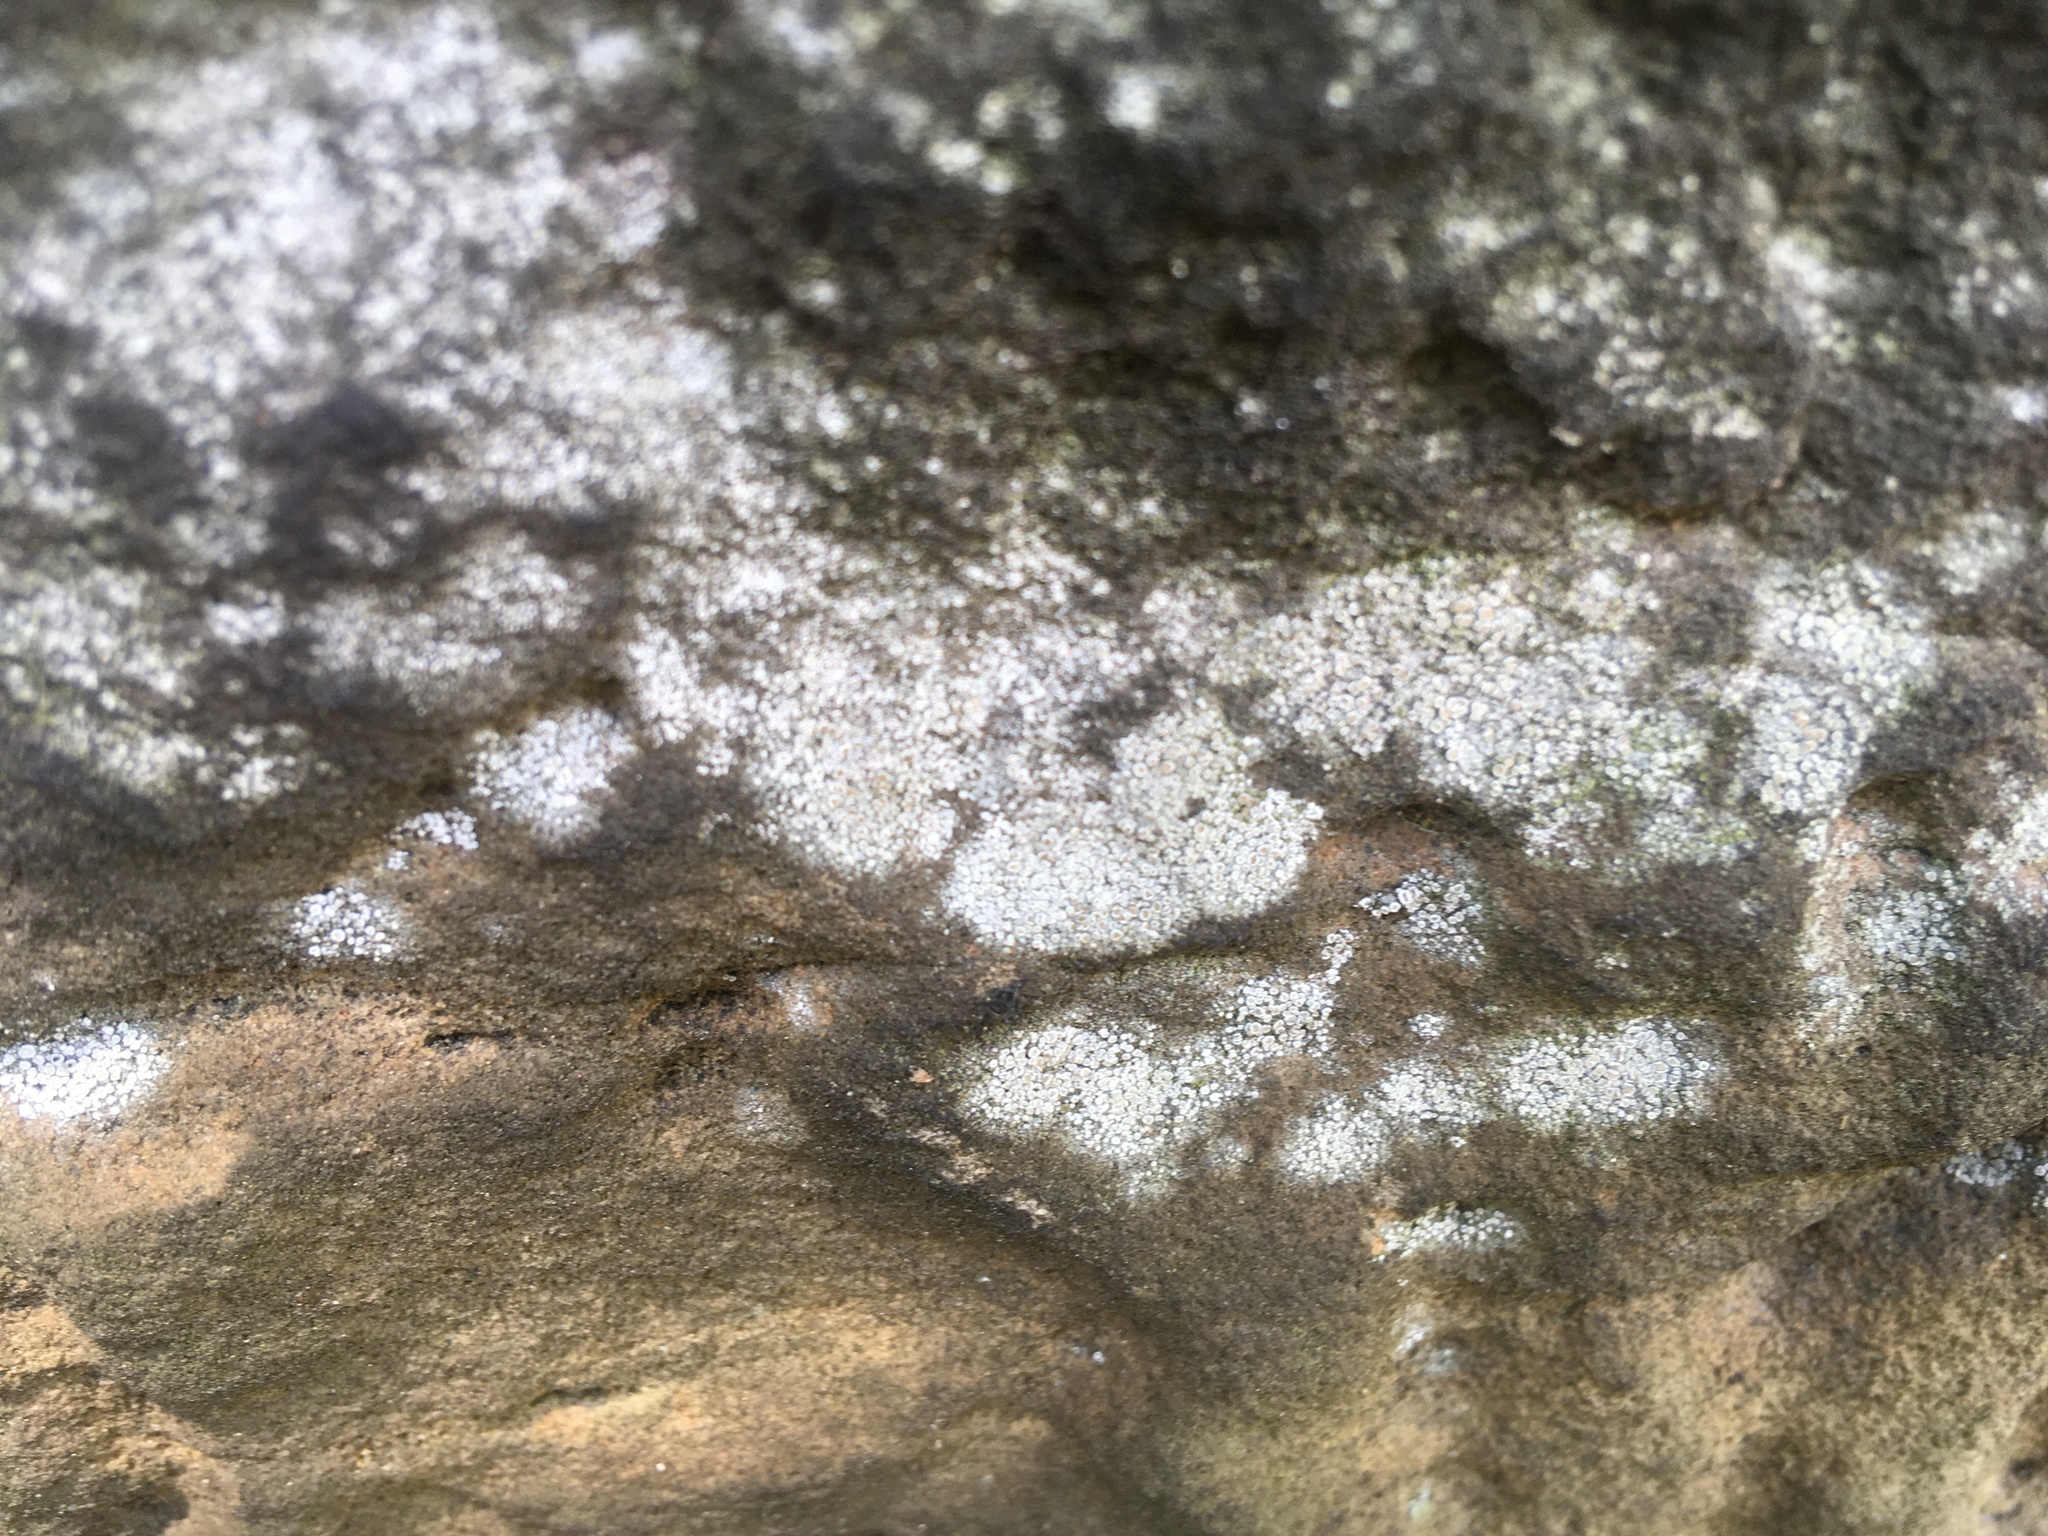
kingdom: Fungi
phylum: Ascomycota
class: Lecanoromycetes
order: Lecanorales
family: Lecanoraceae
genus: Polyozosia
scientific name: Polyozosia dispersa
